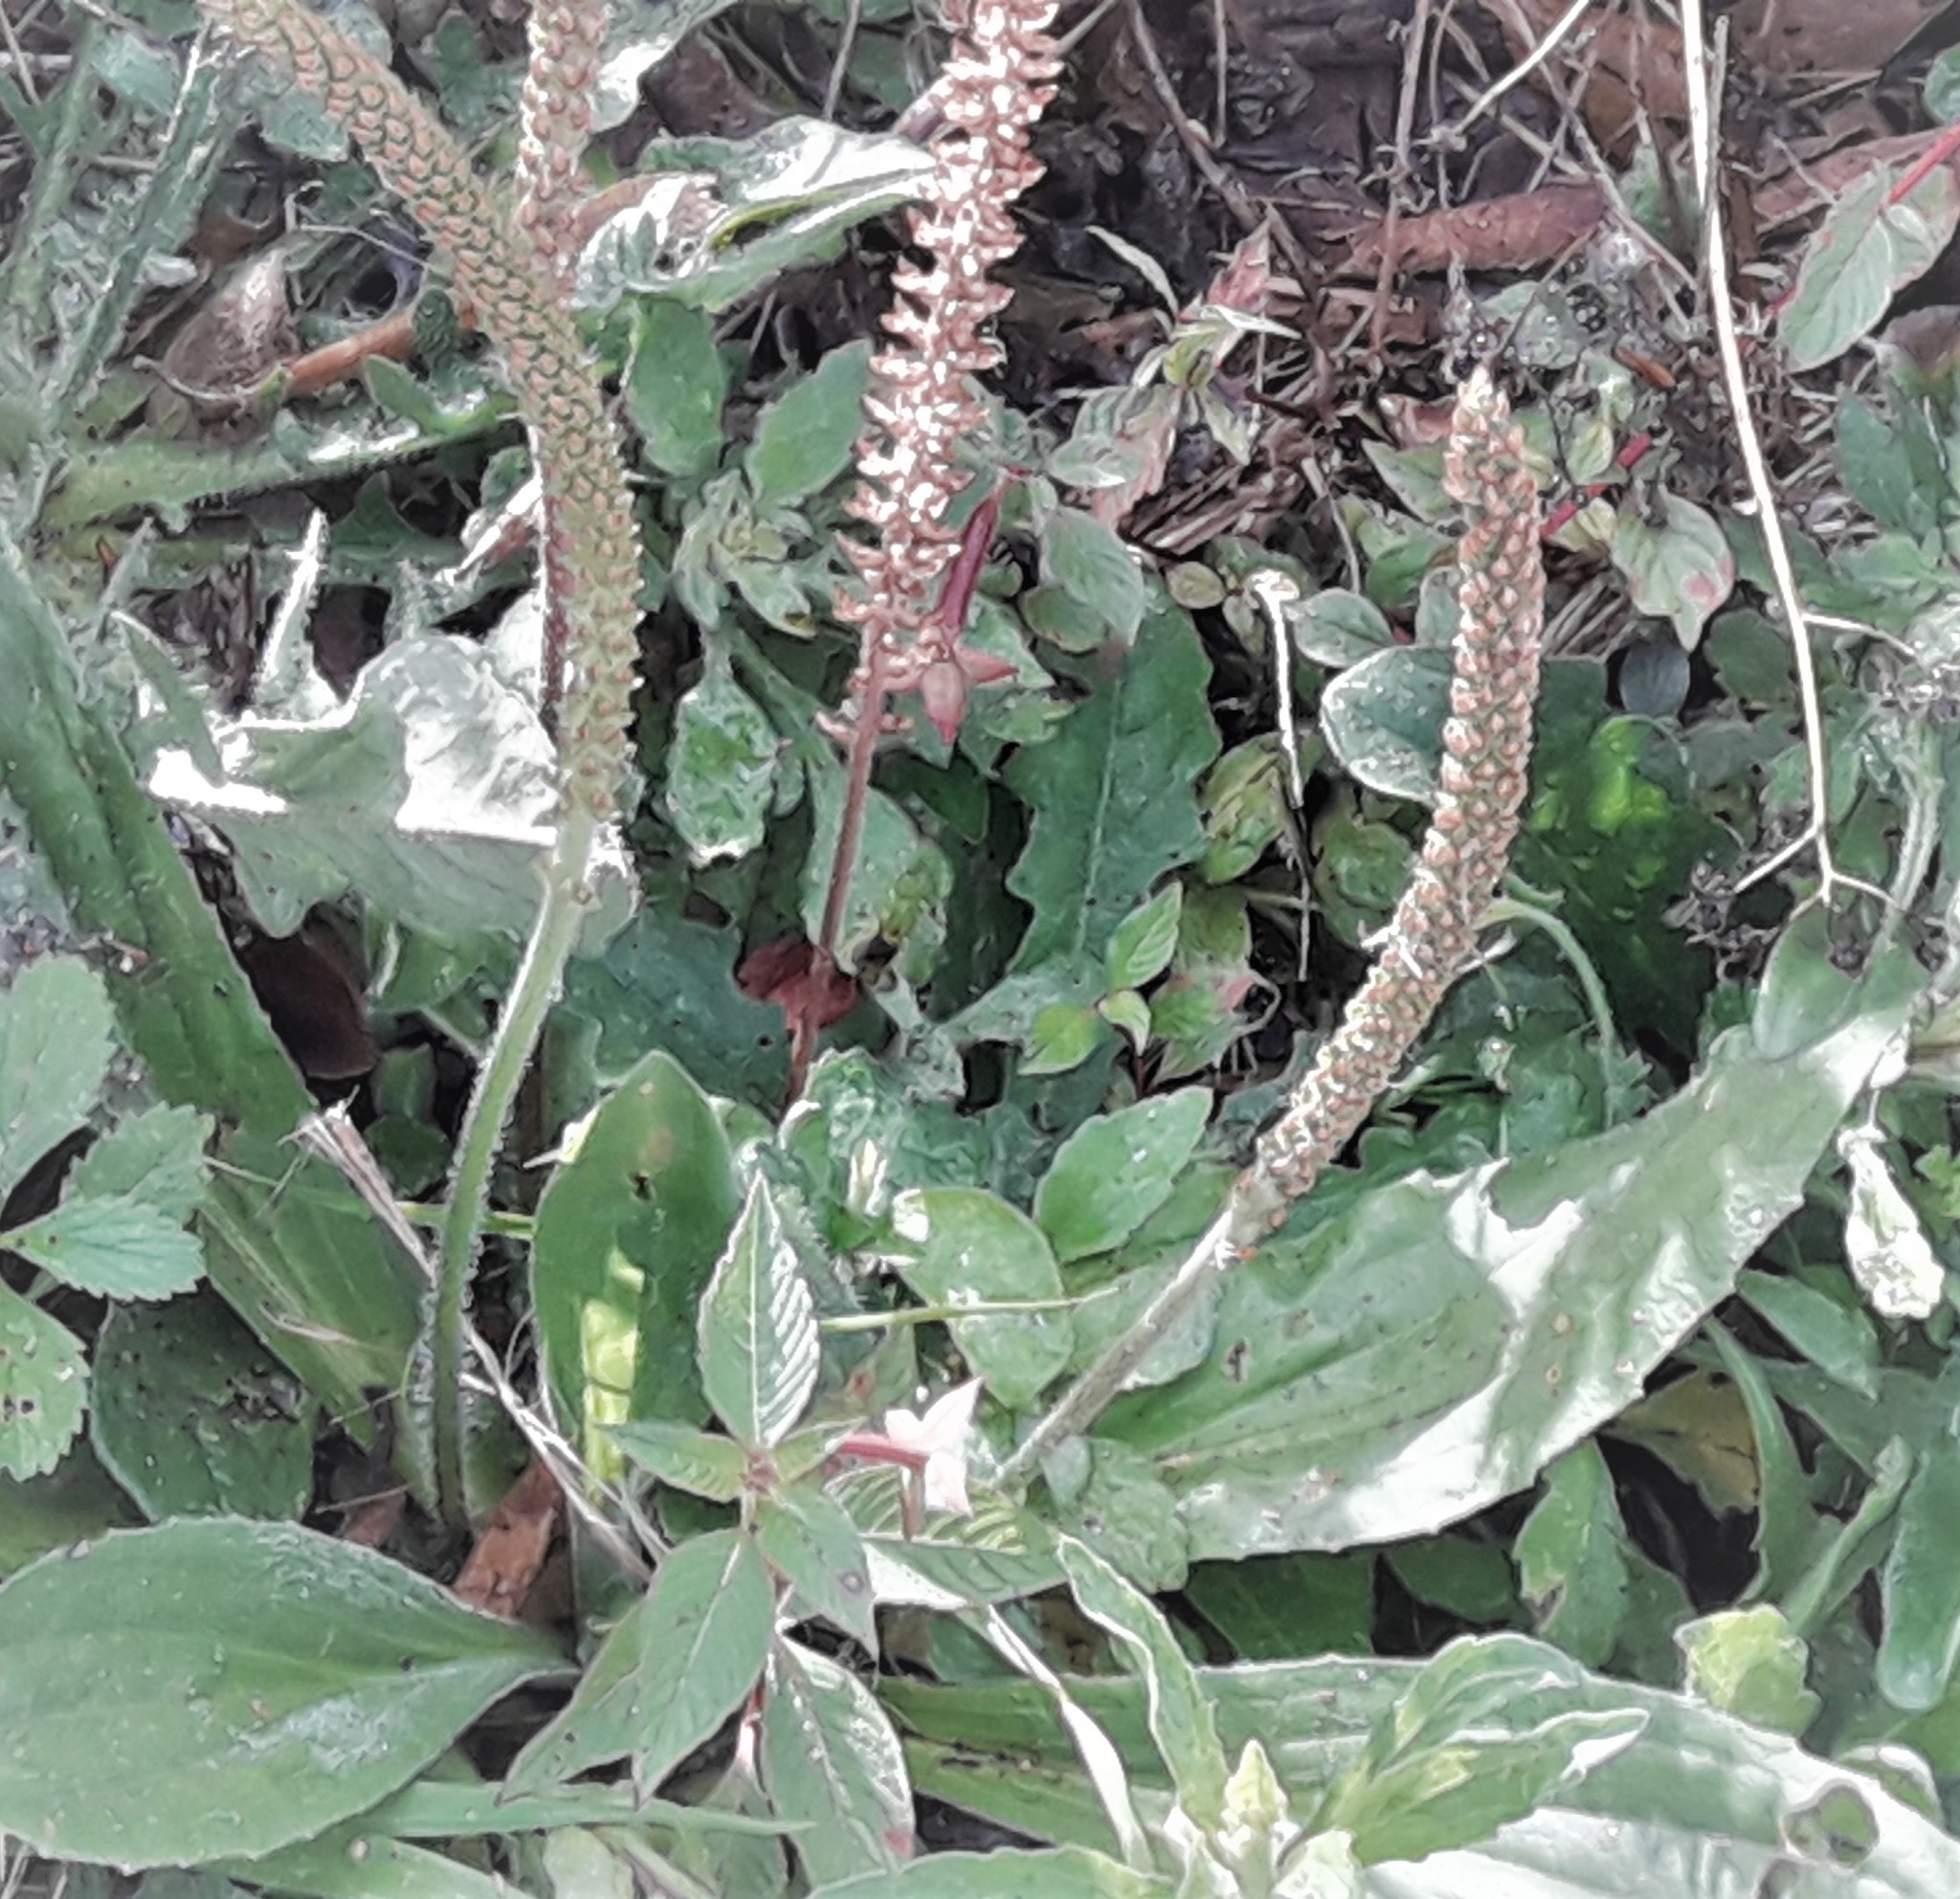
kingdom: Plantae
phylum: Tracheophyta
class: Magnoliopsida
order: Lamiales
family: Plantaginaceae
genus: Plantago
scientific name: Plantago major
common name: Common plantain
